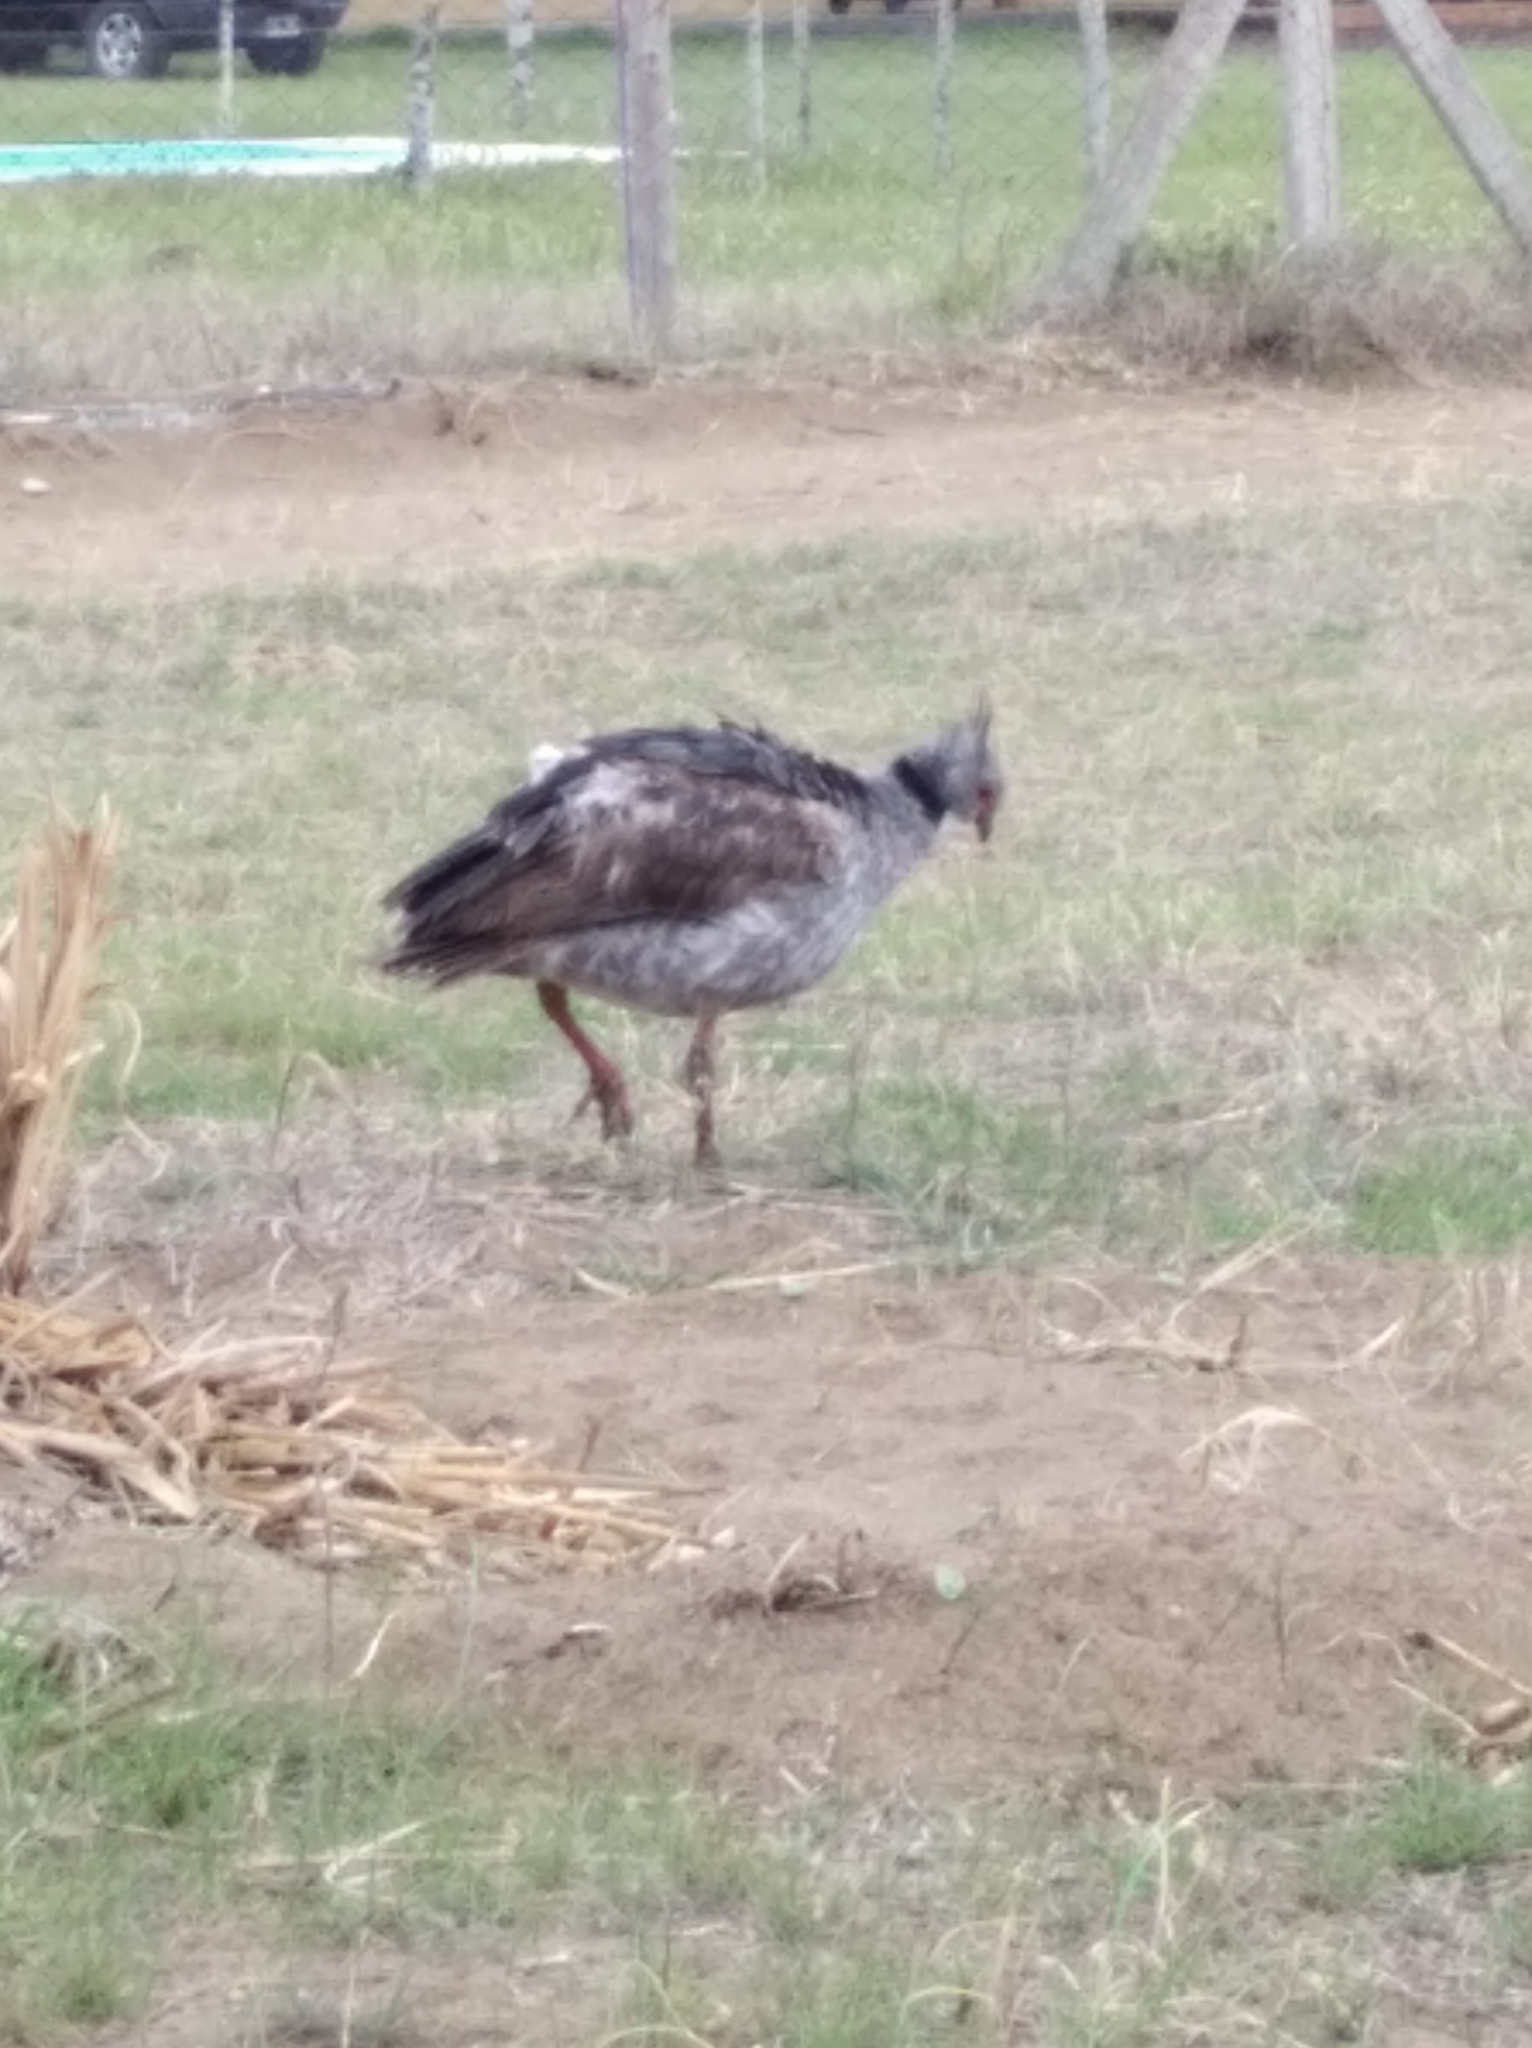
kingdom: Animalia
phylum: Chordata
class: Aves
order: Anseriformes
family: Anhimidae
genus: Chauna
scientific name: Chauna torquata
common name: Southern screamer
